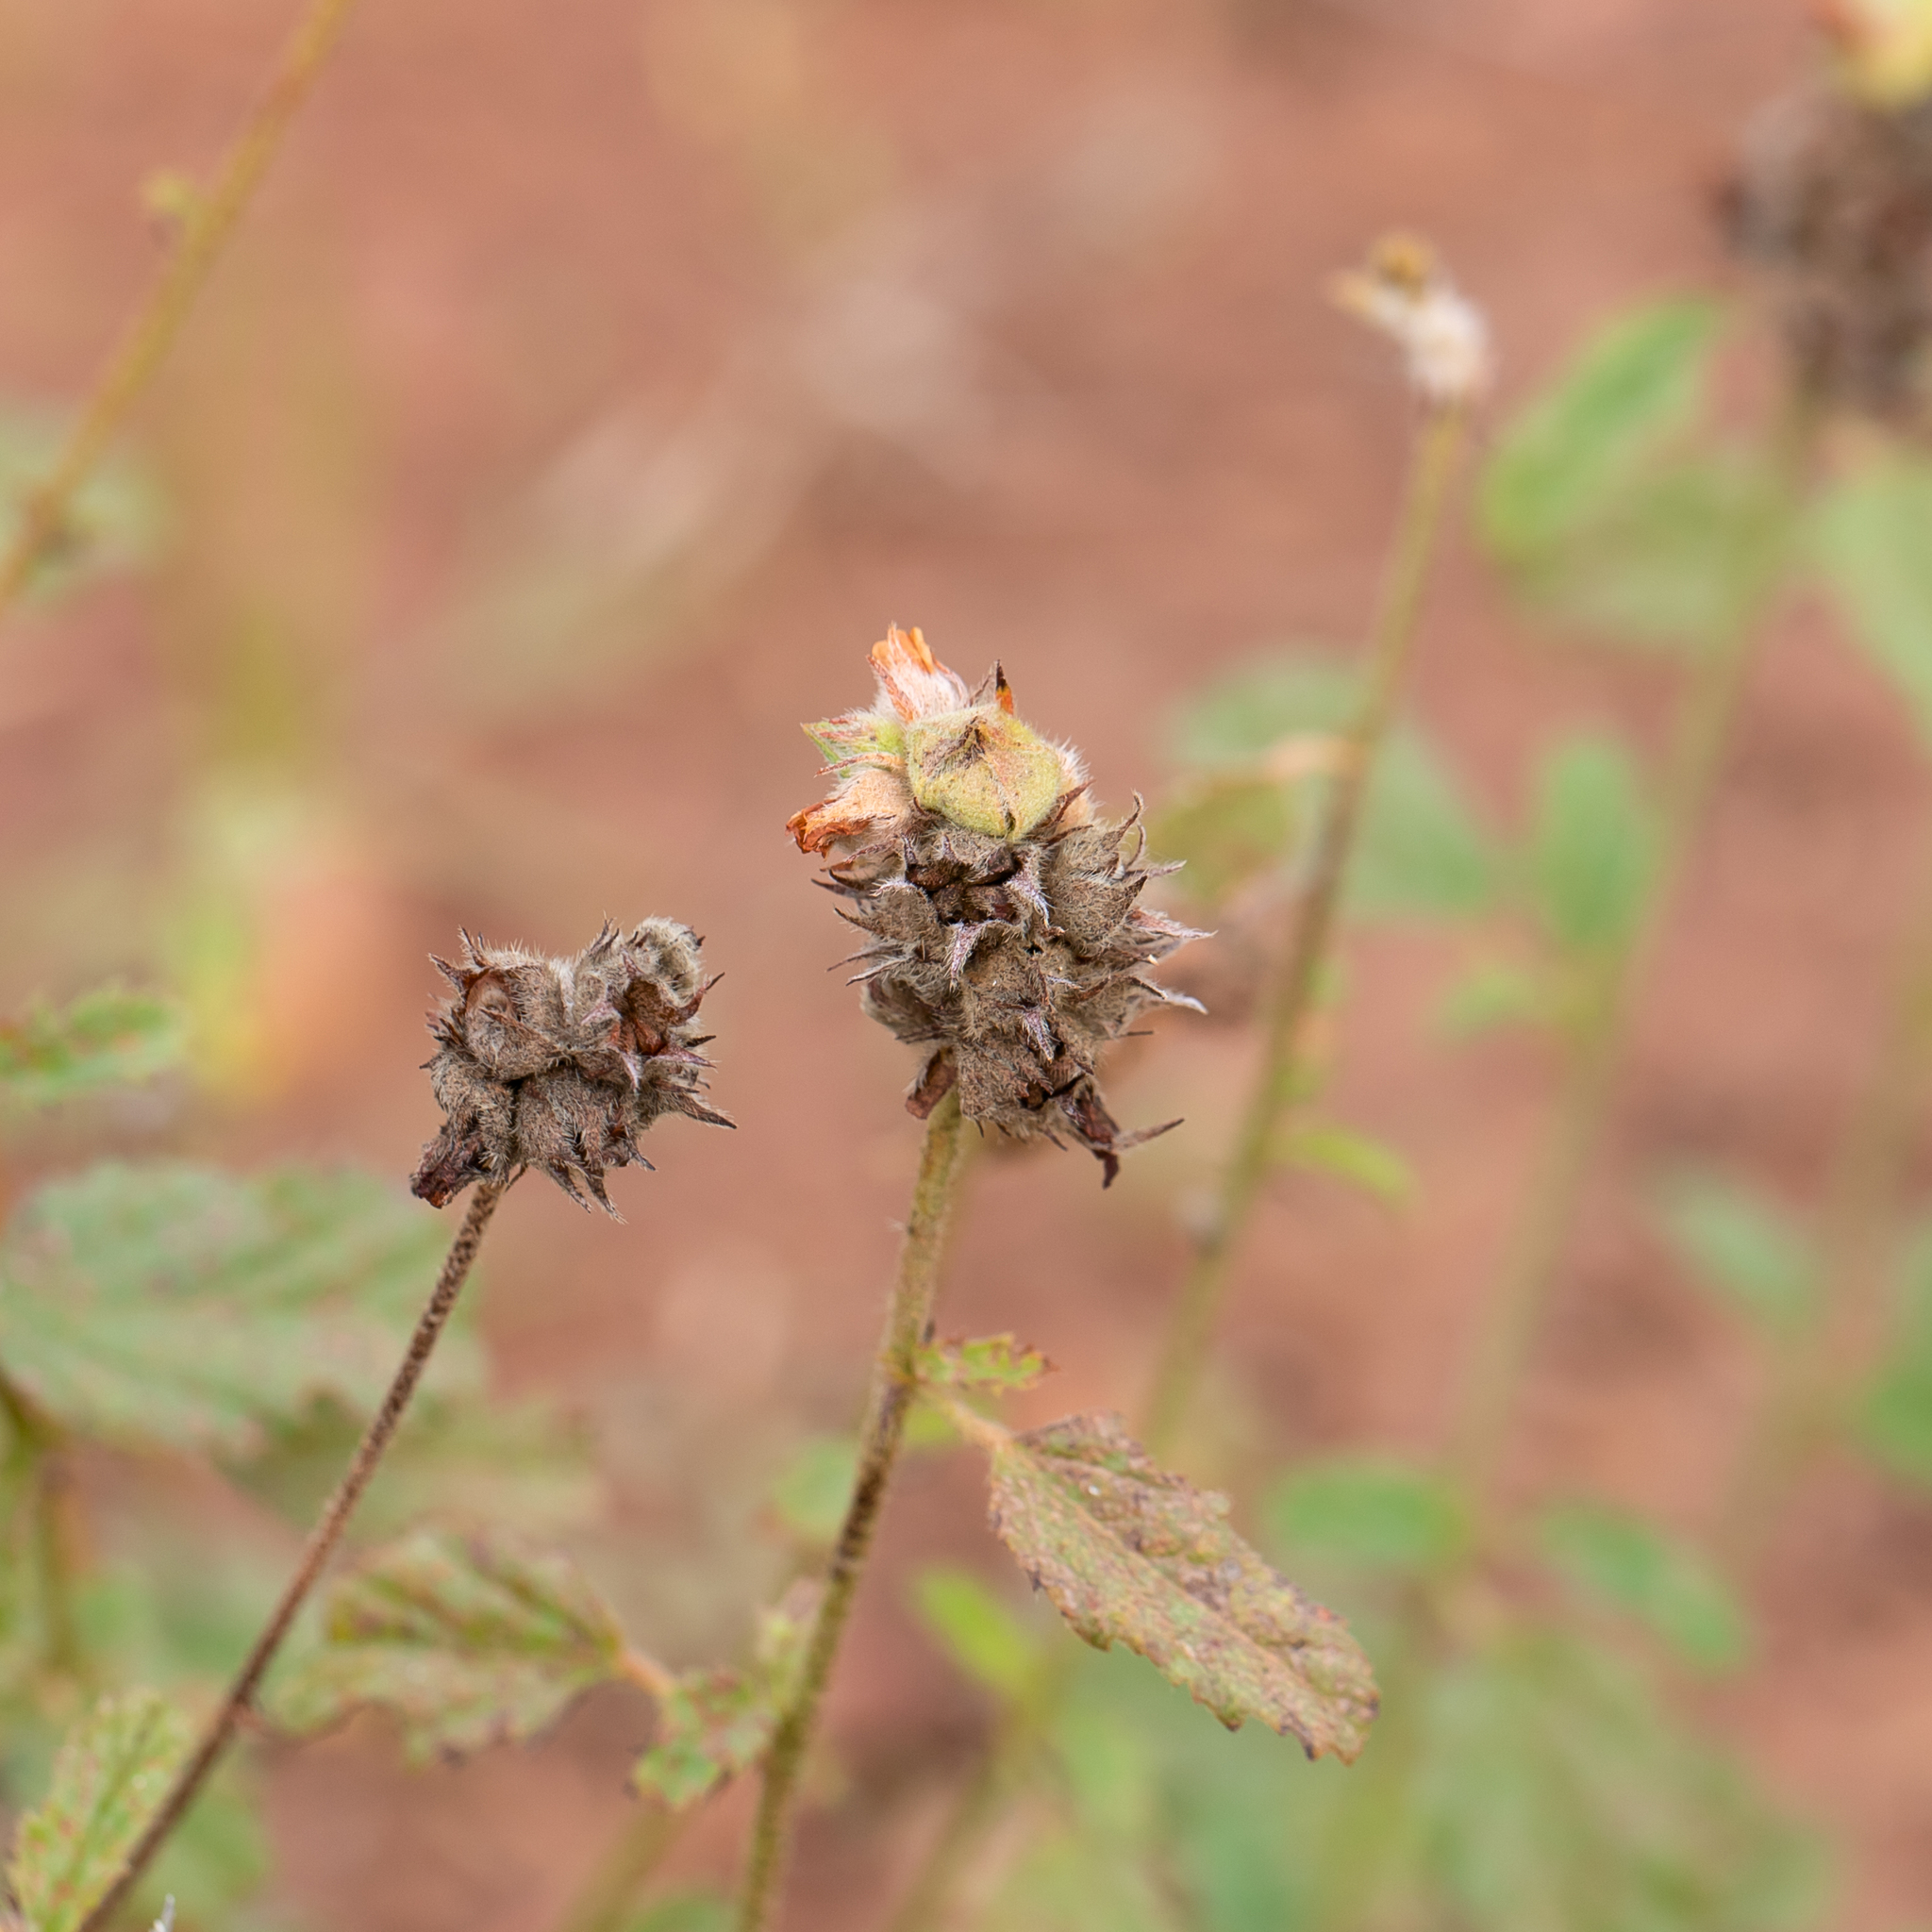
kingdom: Plantae
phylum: Tracheophyta
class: Magnoliopsida
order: Malvales
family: Malvaceae
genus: Malvastrum
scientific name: Malvastrum americanum
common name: Spiked malvastrum
